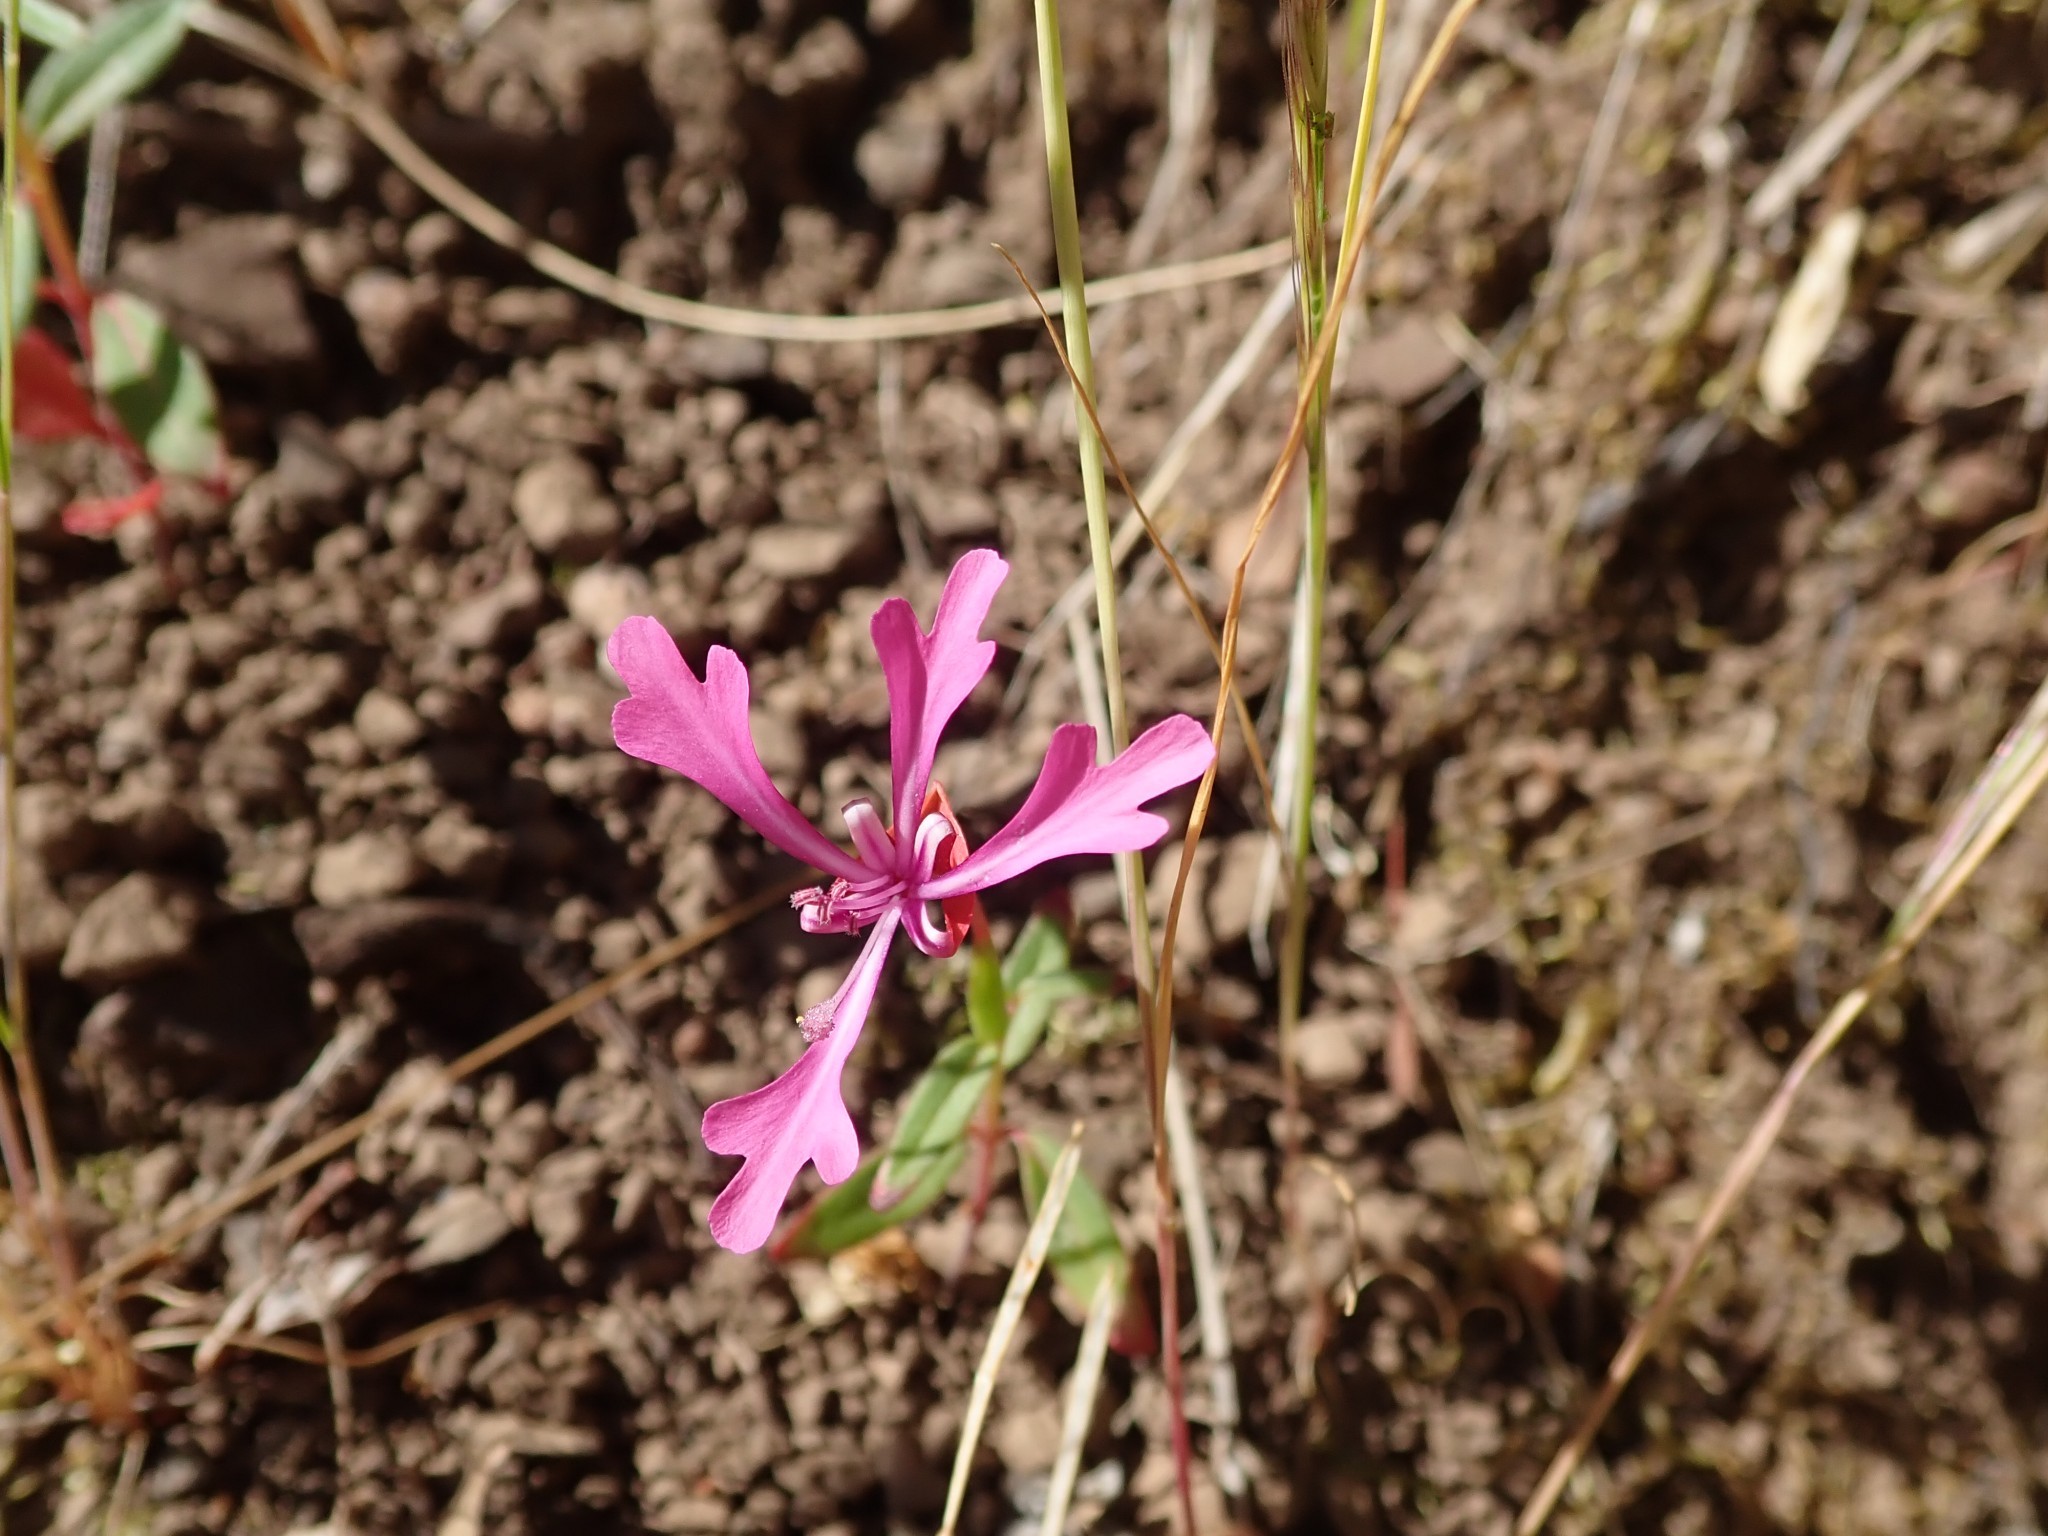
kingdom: Plantae
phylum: Tracheophyta
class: Magnoliopsida
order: Myrtales
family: Onagraceae
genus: Clarkia
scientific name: Clarkia concinna
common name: Red-ribbons
